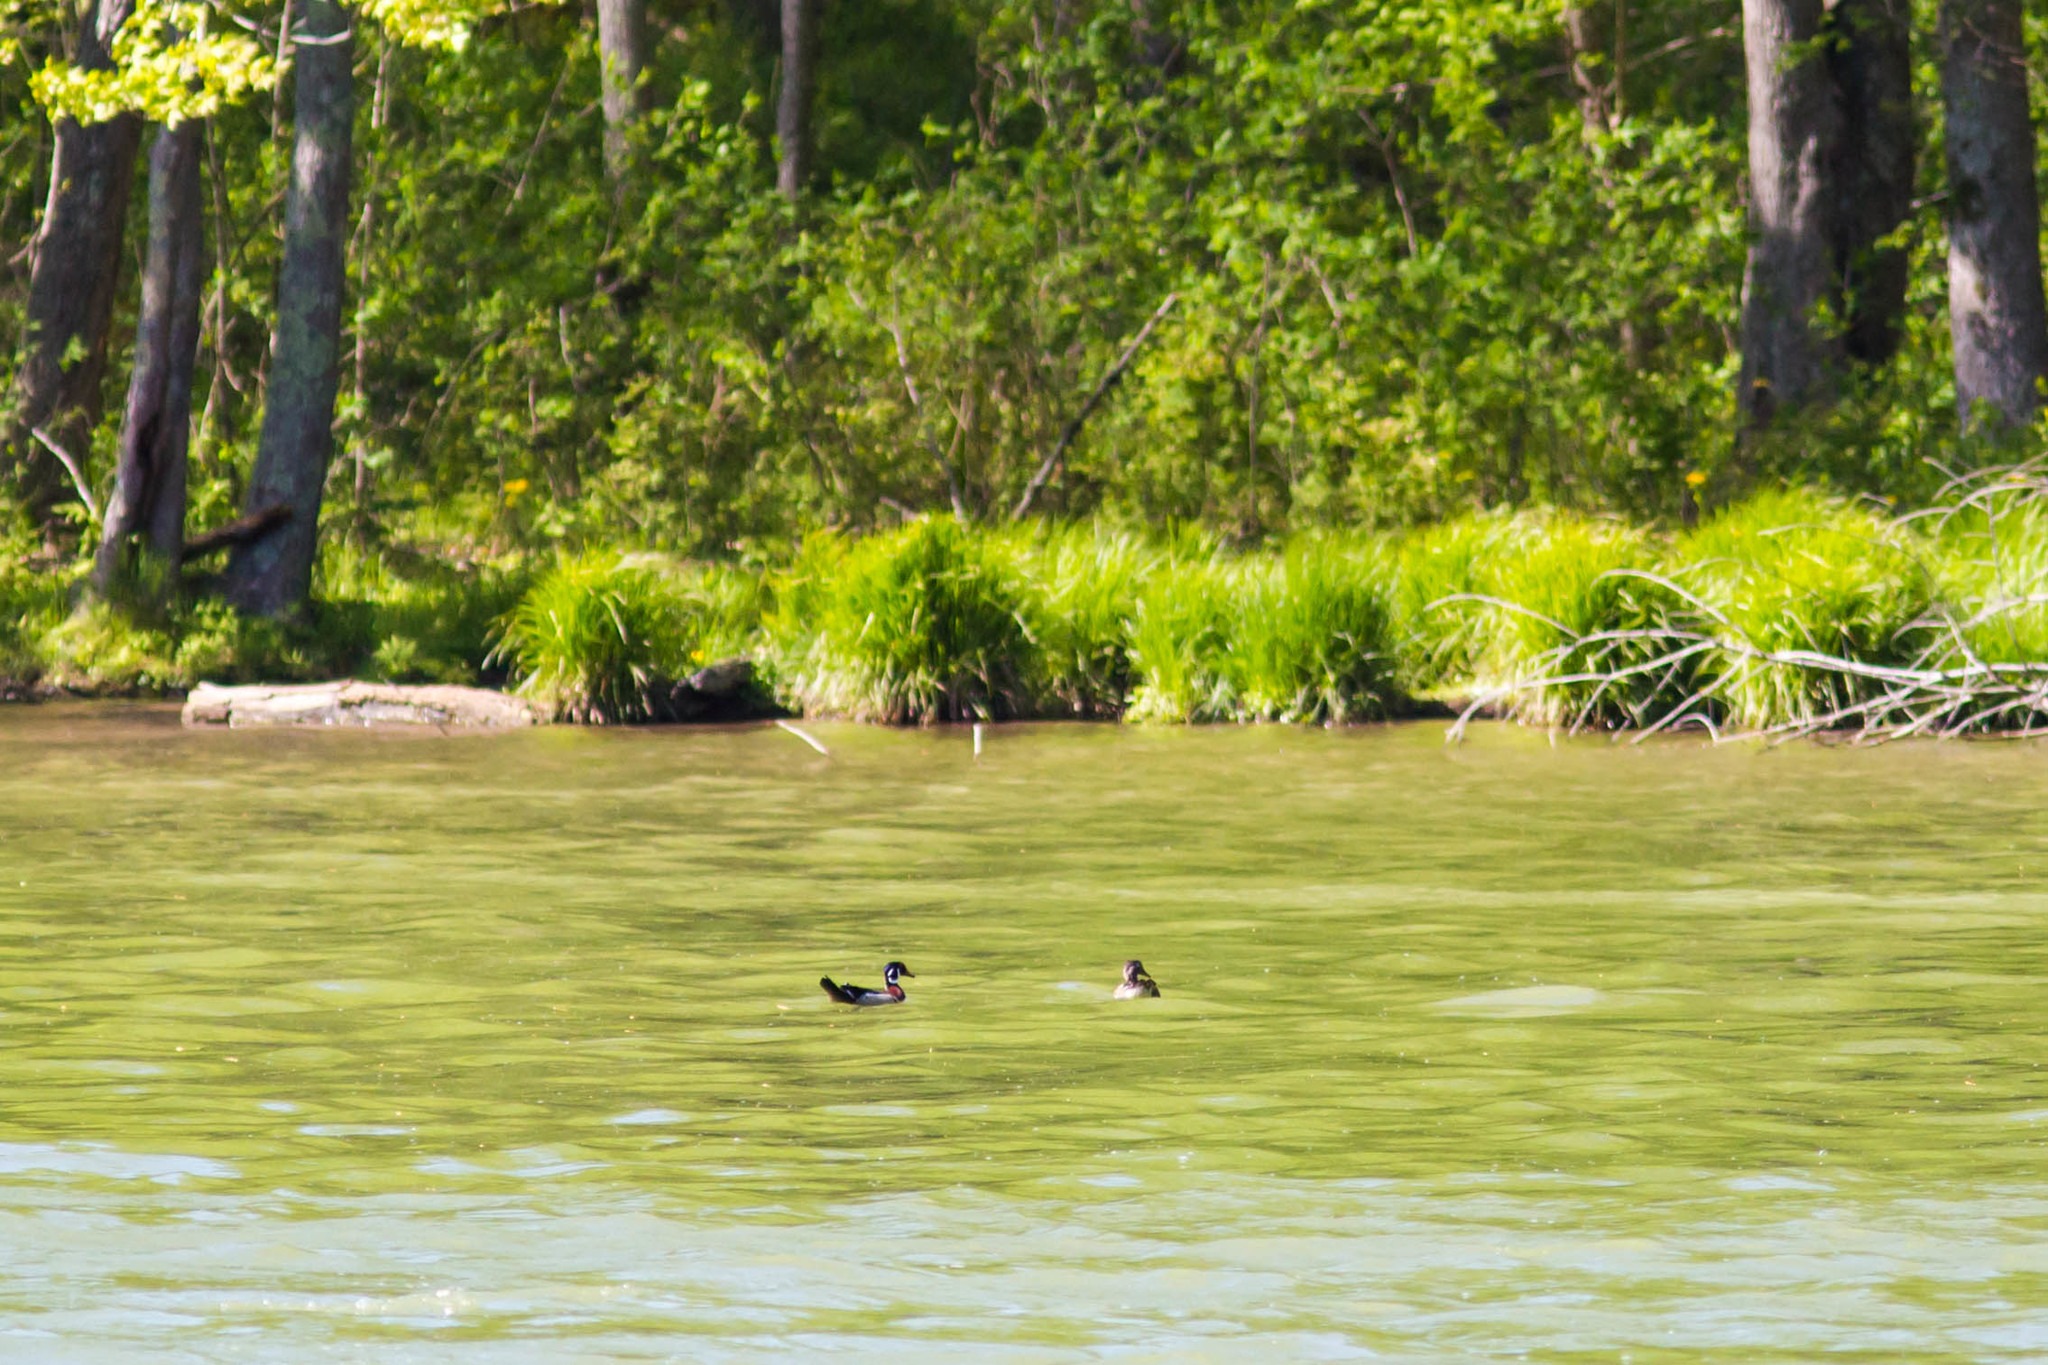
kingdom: Animalia
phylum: Chordata
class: Aves
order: Anseriformes
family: Anatidae
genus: Aix
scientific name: Aix sponsa
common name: Wood duck
